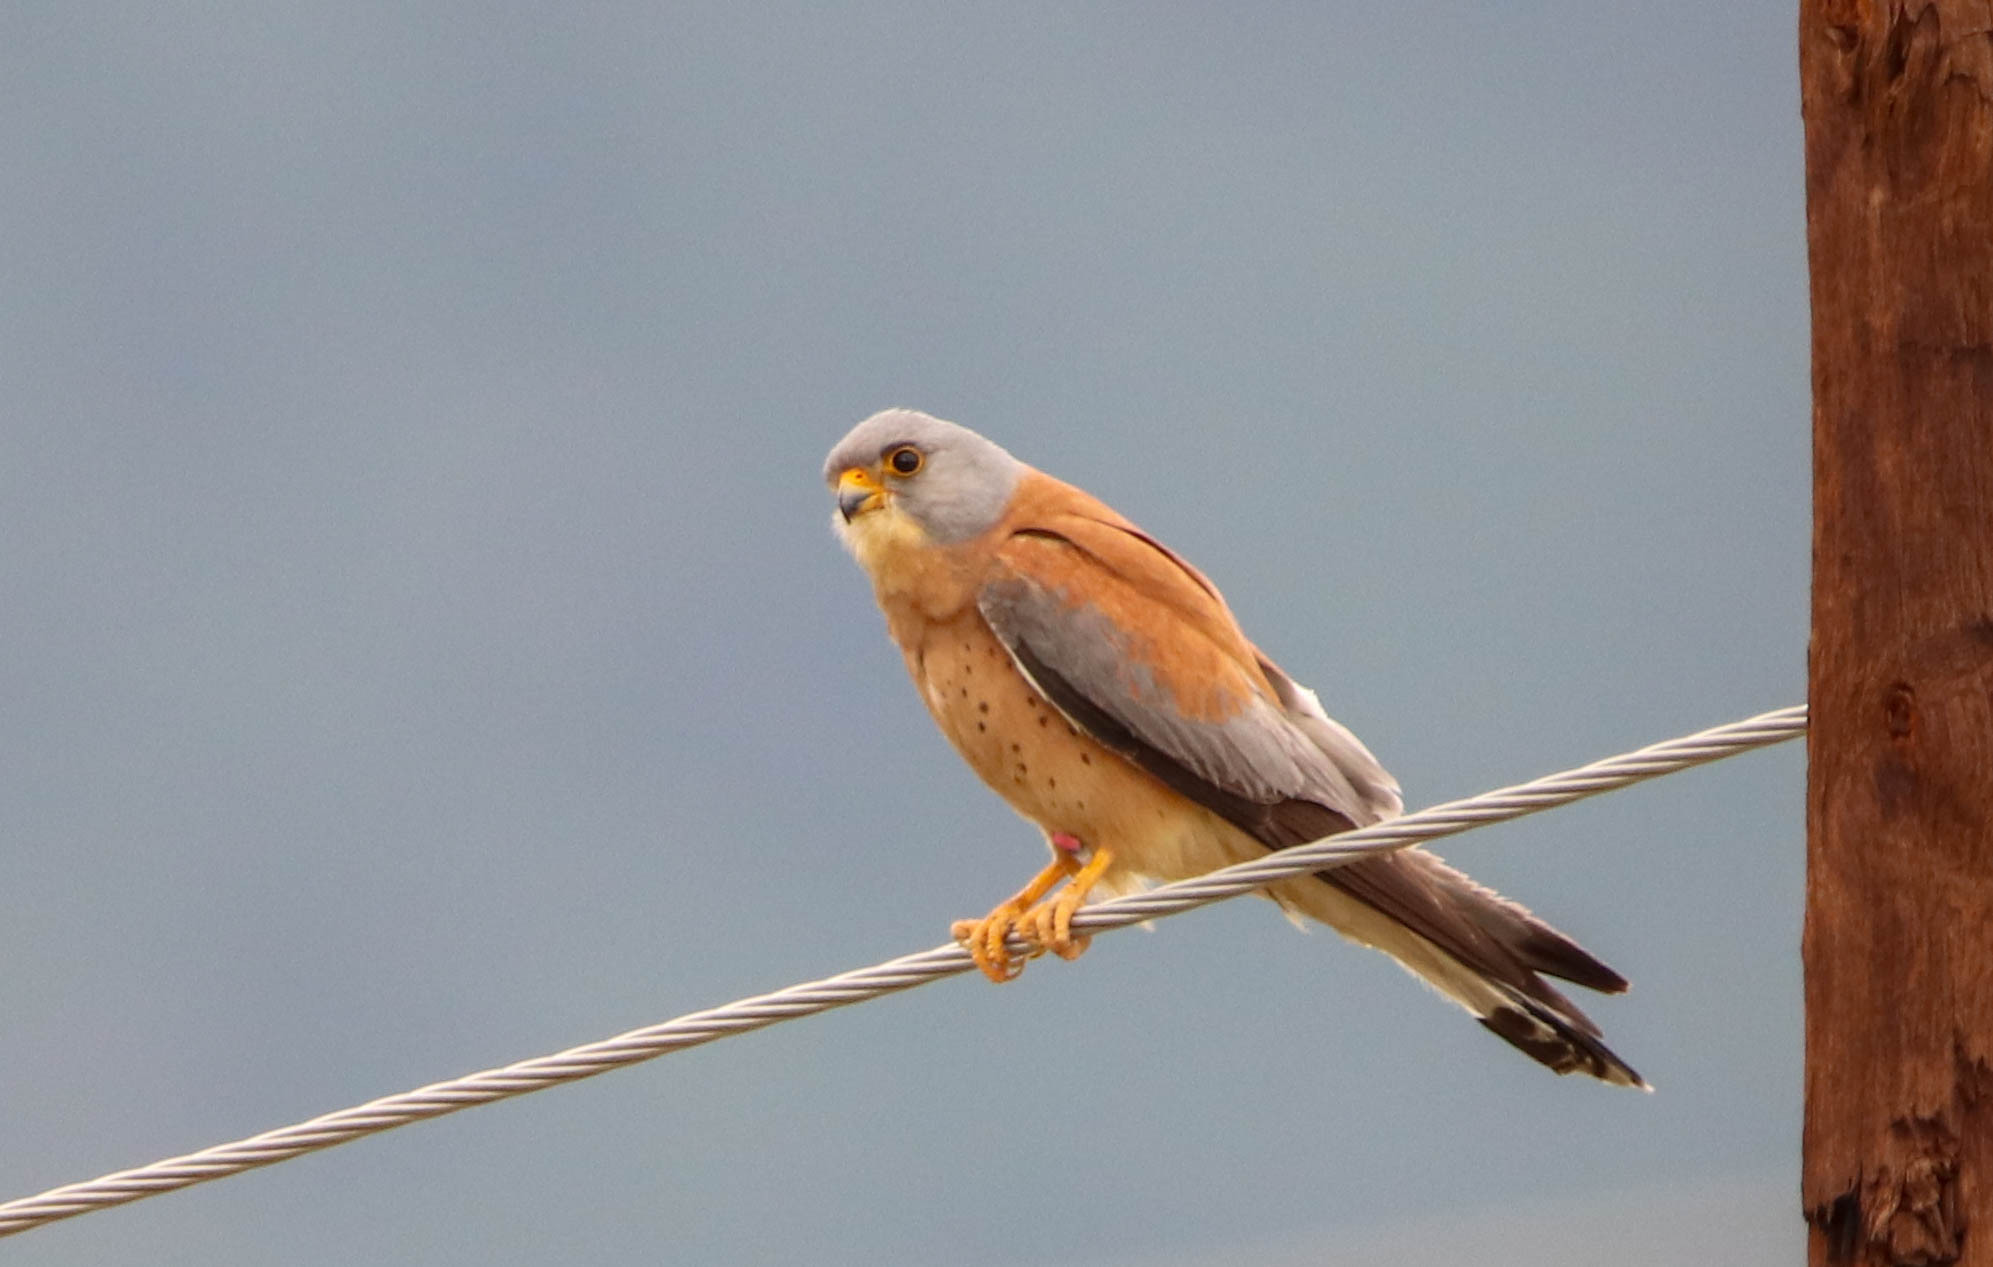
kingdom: Animalia
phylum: Chordata
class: Aves
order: Falconiformes
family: Falconidae
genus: Falco
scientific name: Falco naumanni
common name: Lesser kestrel
